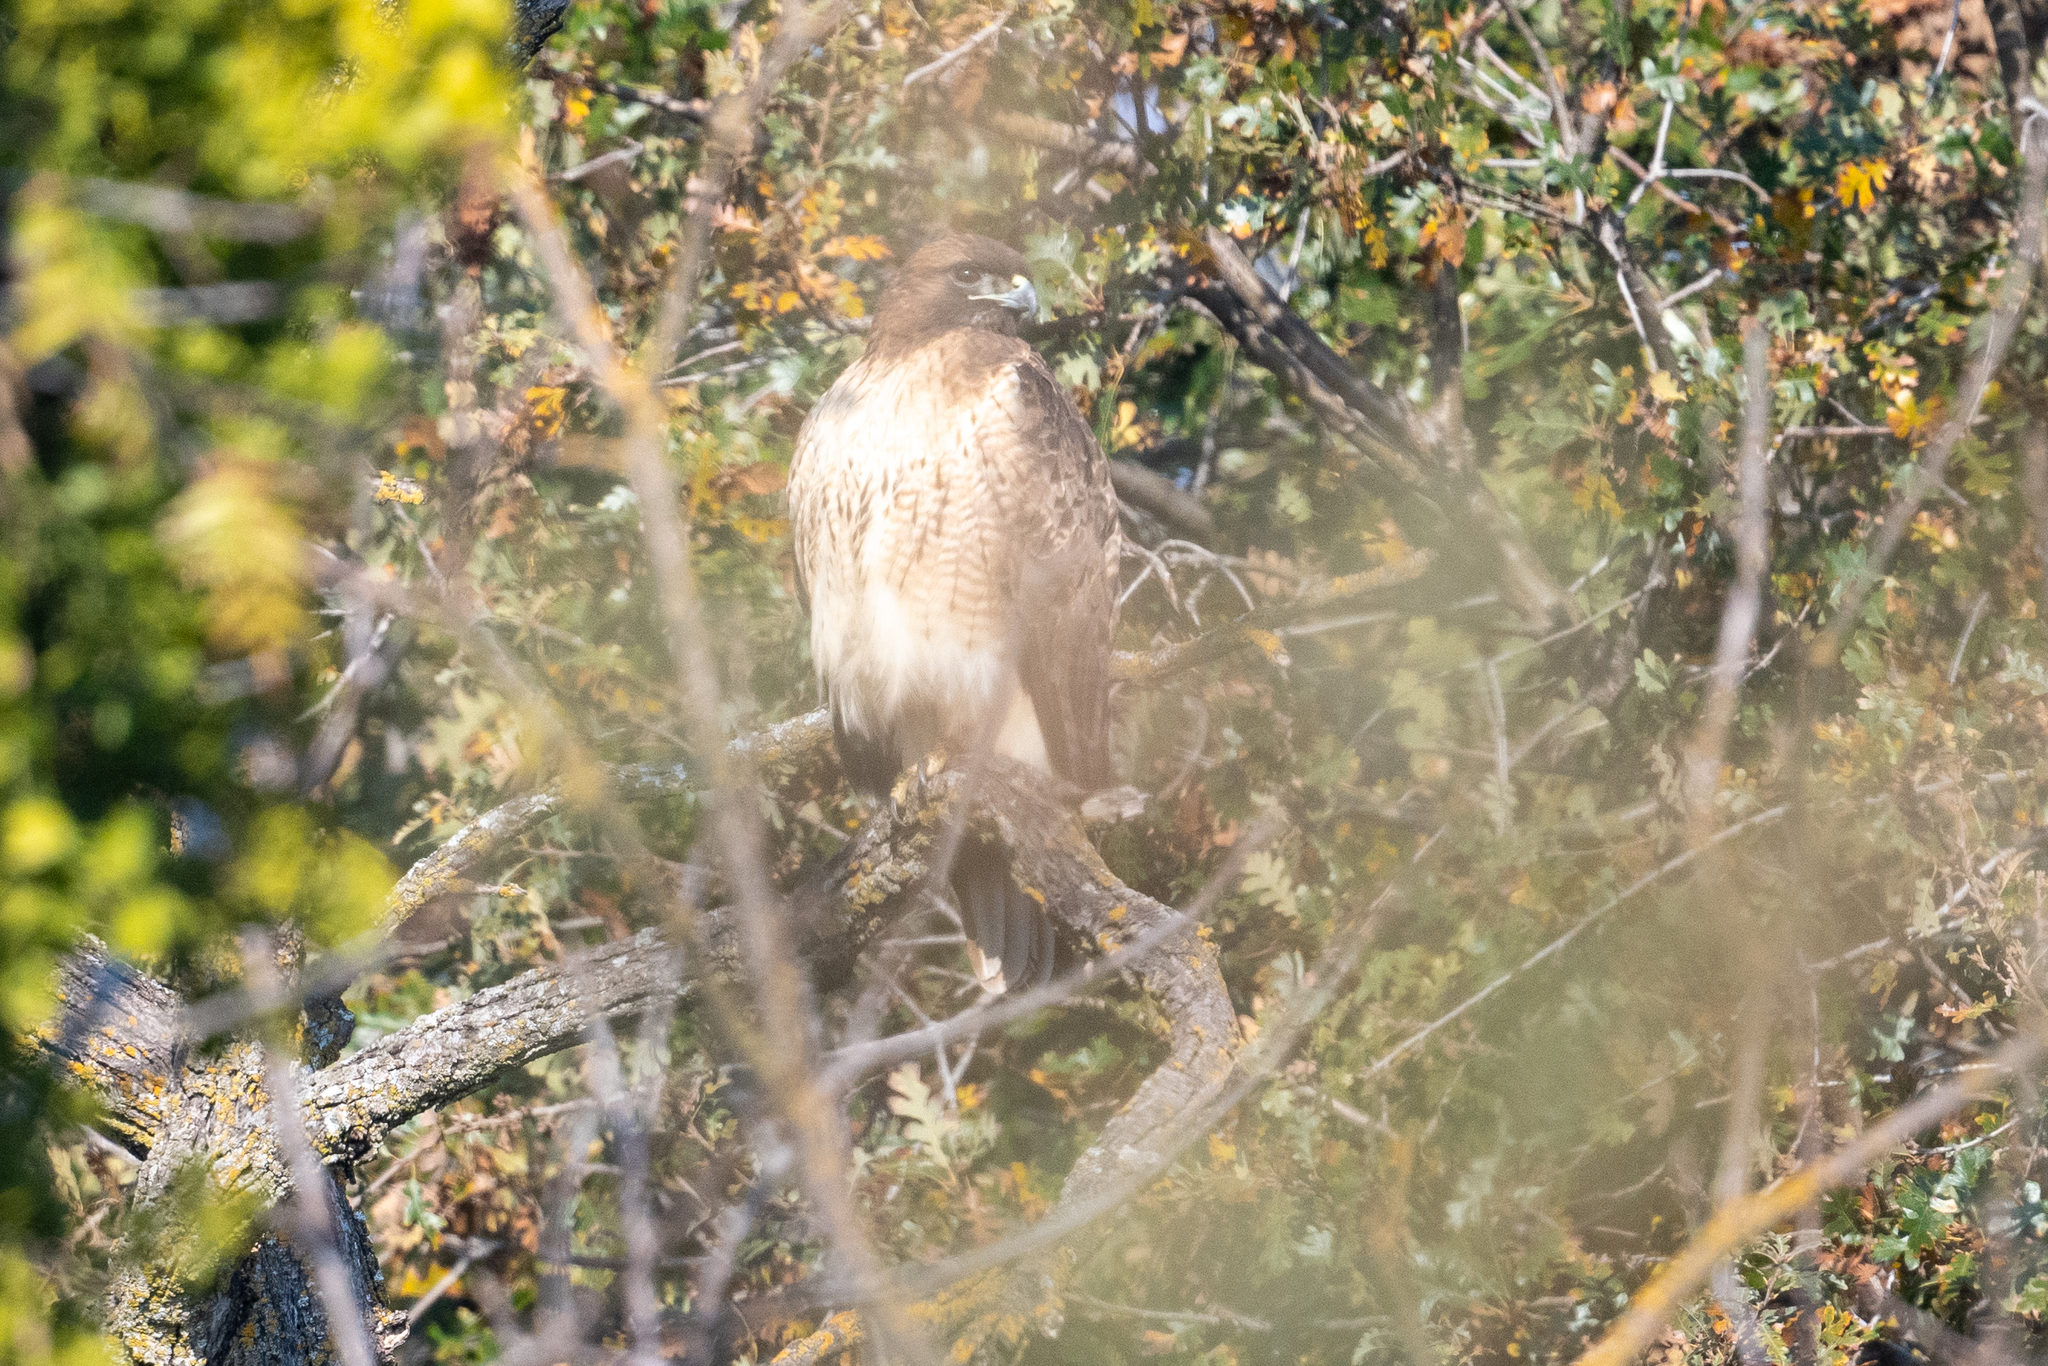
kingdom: Animalia
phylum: Chordata
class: Aves
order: Accipitriformes
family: Accipitridae
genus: Buteo
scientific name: Buteo jamaicensis
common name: Red-tailed hawk
